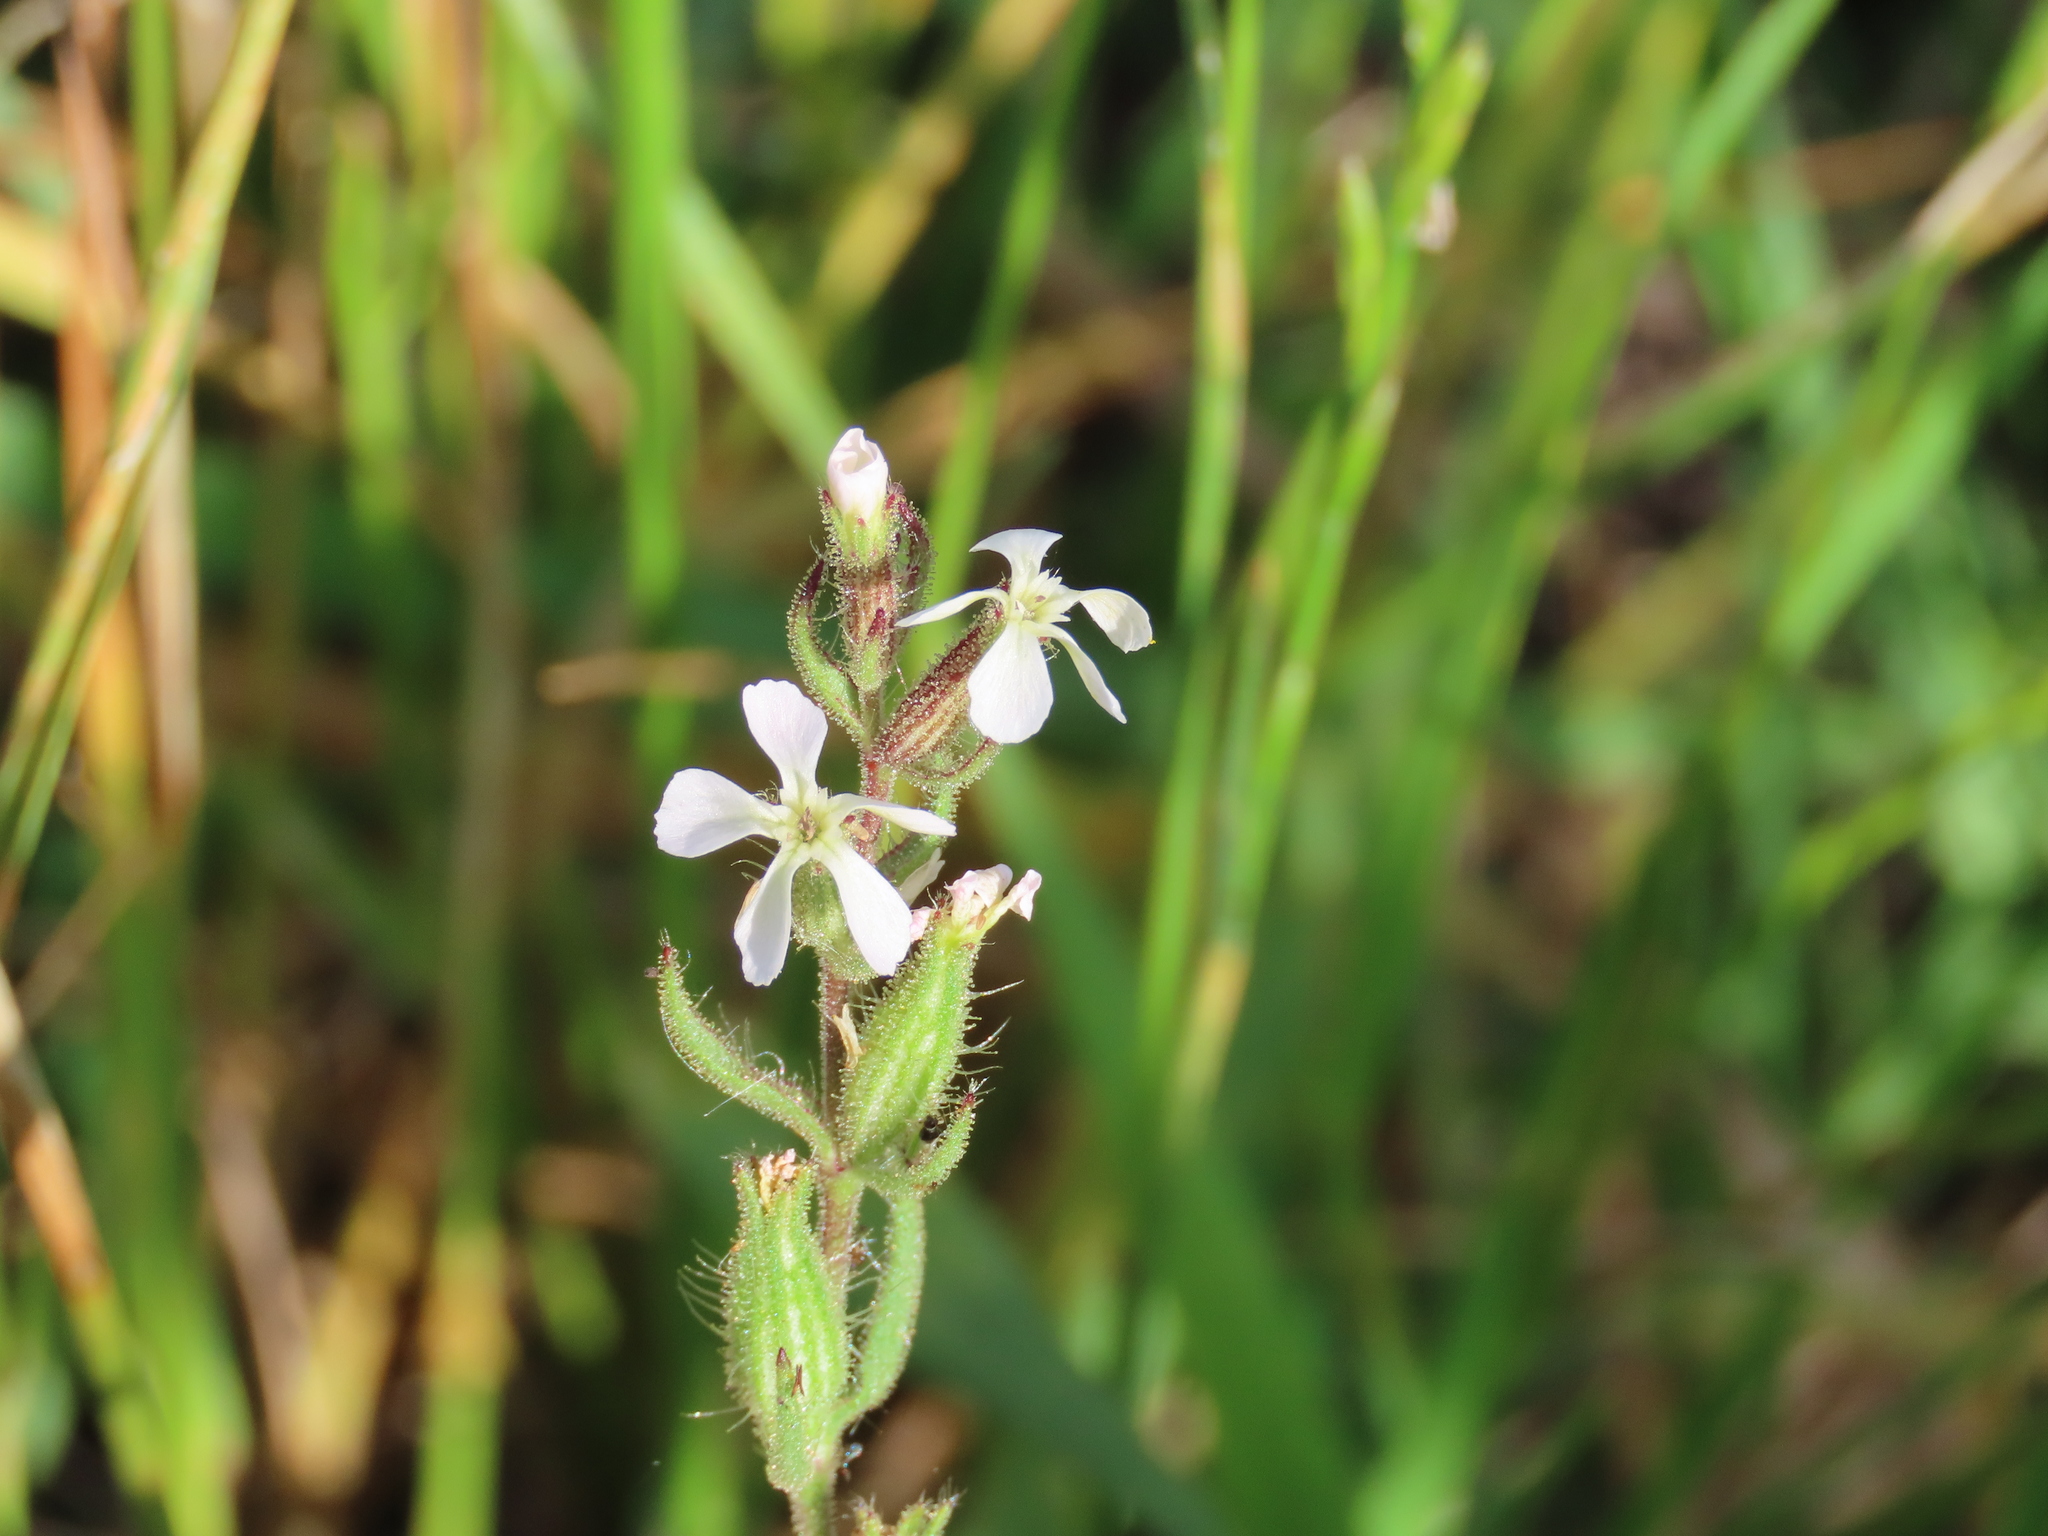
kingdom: Plantae
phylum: Tracheophyta
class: Magnoliopsida
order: Caryophyllales
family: Caryophyllaceae
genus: Silene
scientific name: Silene gallica
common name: Small-flowered catchfly
